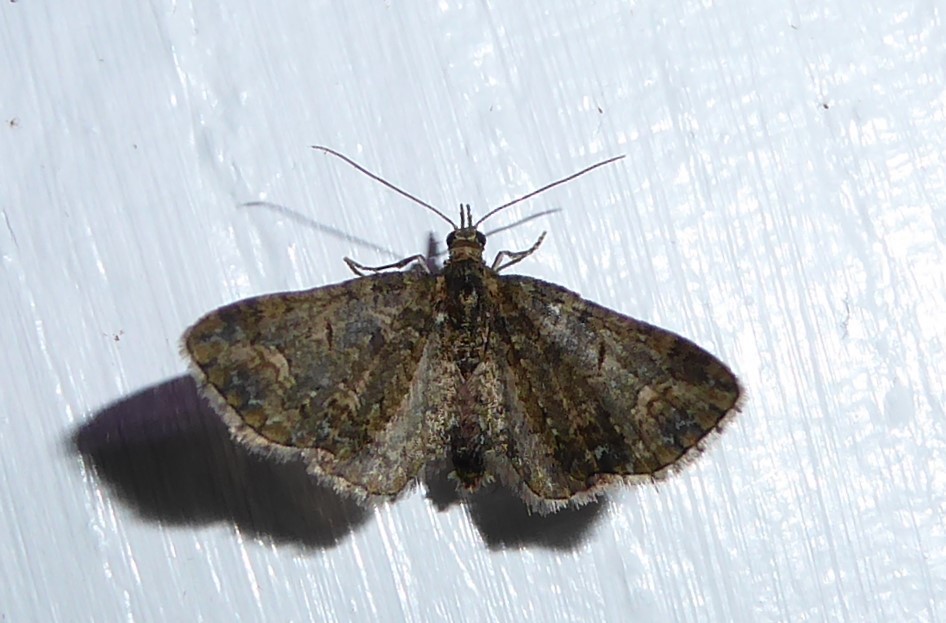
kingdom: Animalia
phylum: Arthropoda
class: Insecta
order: Lepidoptera
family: Geometridae
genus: Idaea
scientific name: Idaea mutanda
